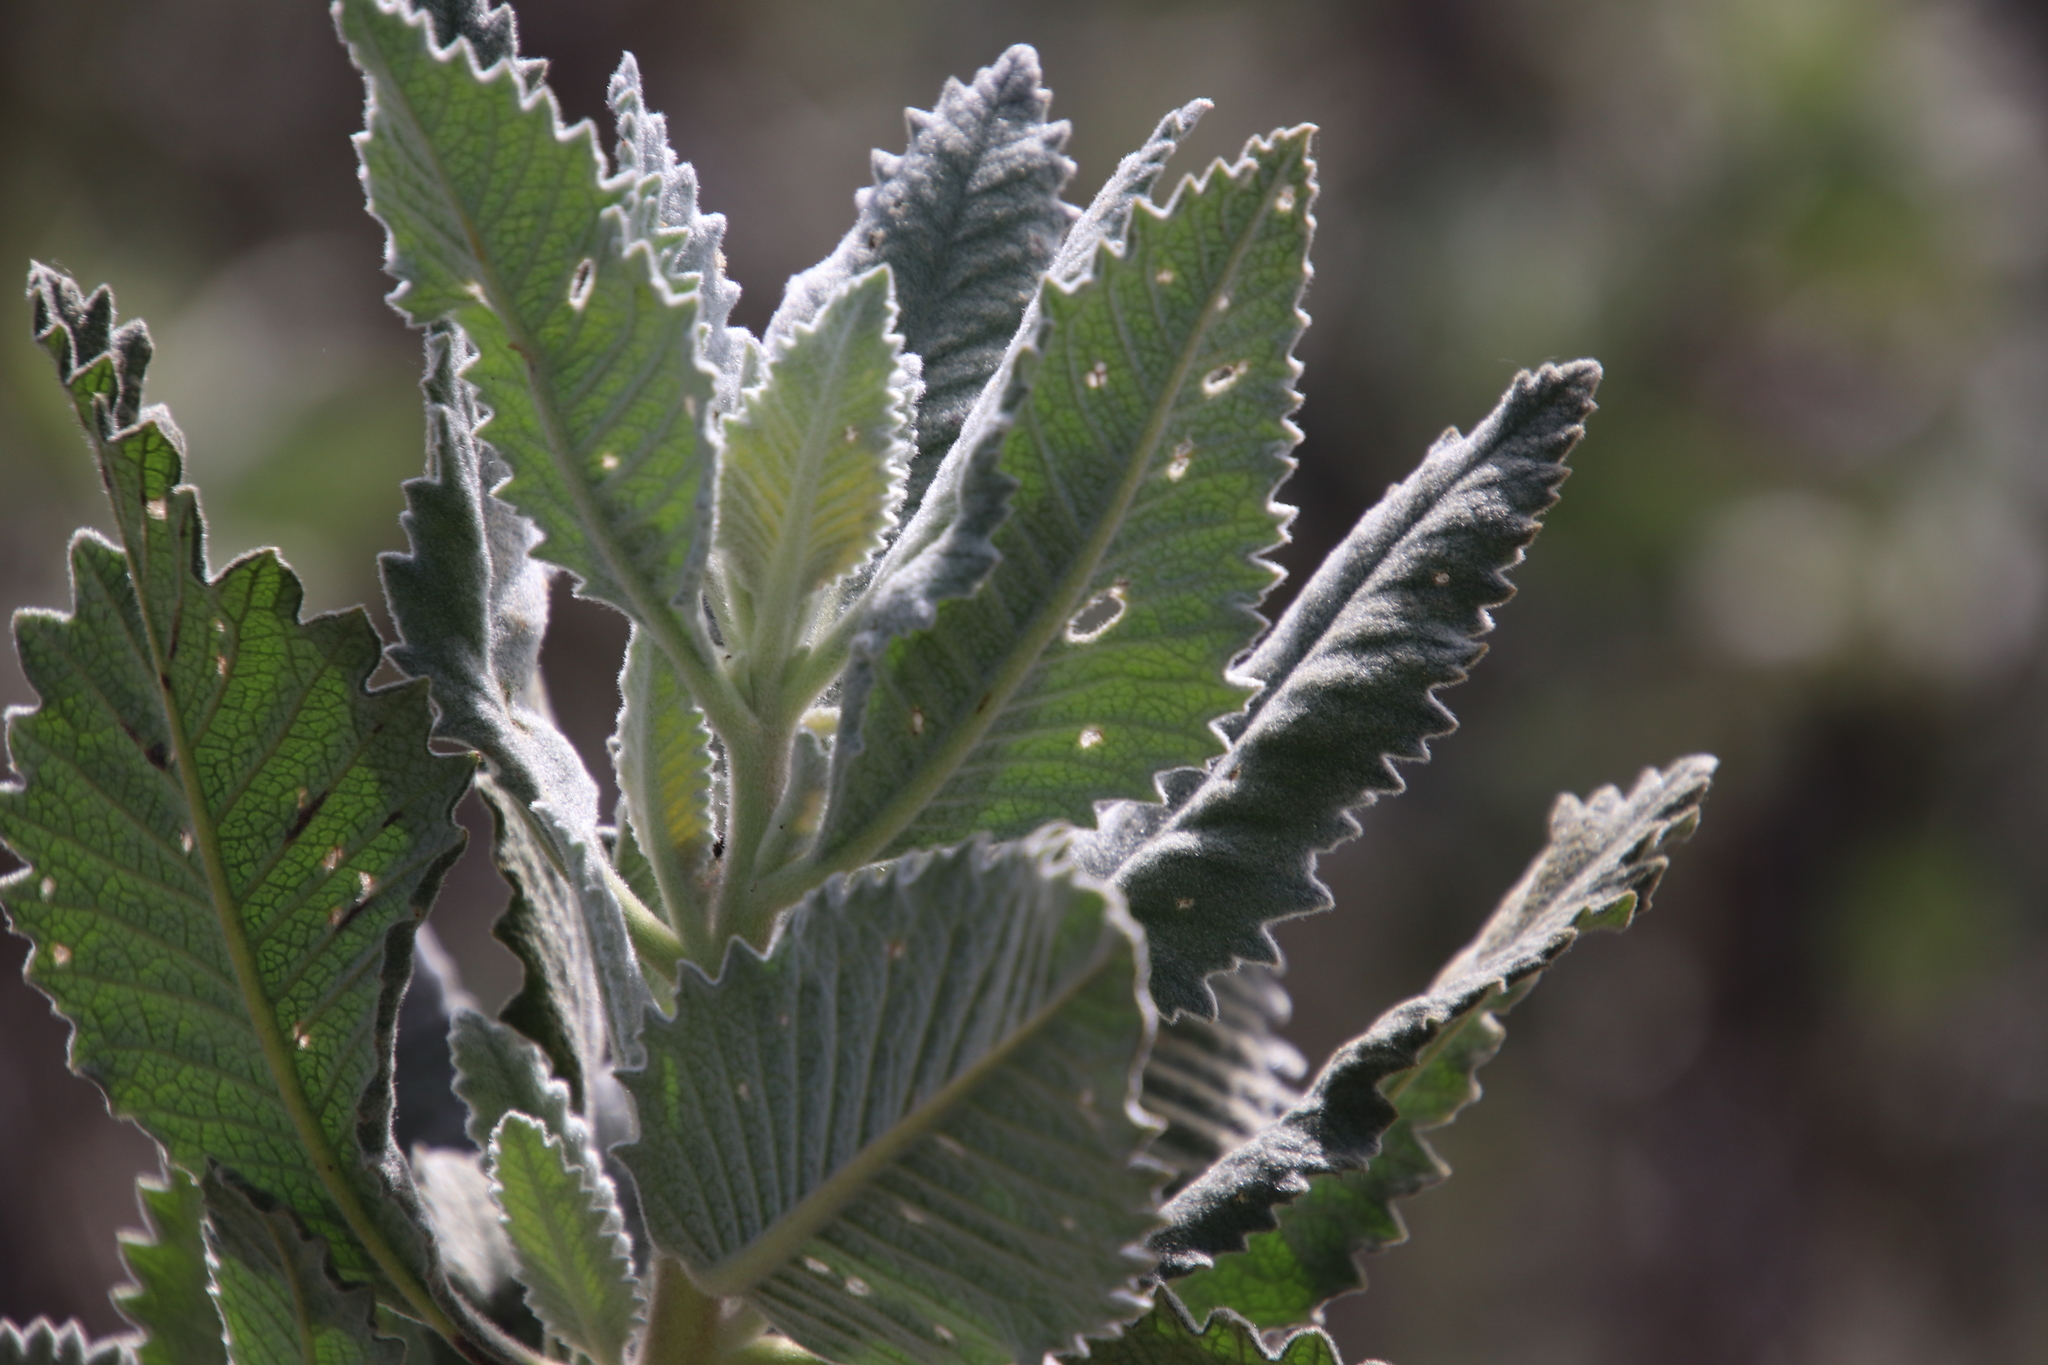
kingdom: Plantae
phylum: Tracheophyta
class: Magnoliopsida
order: Boraginales
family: Namaceae
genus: Eriodictyon
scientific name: Eriodictyon crassifolium
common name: Thick-leaf yerba-santa
